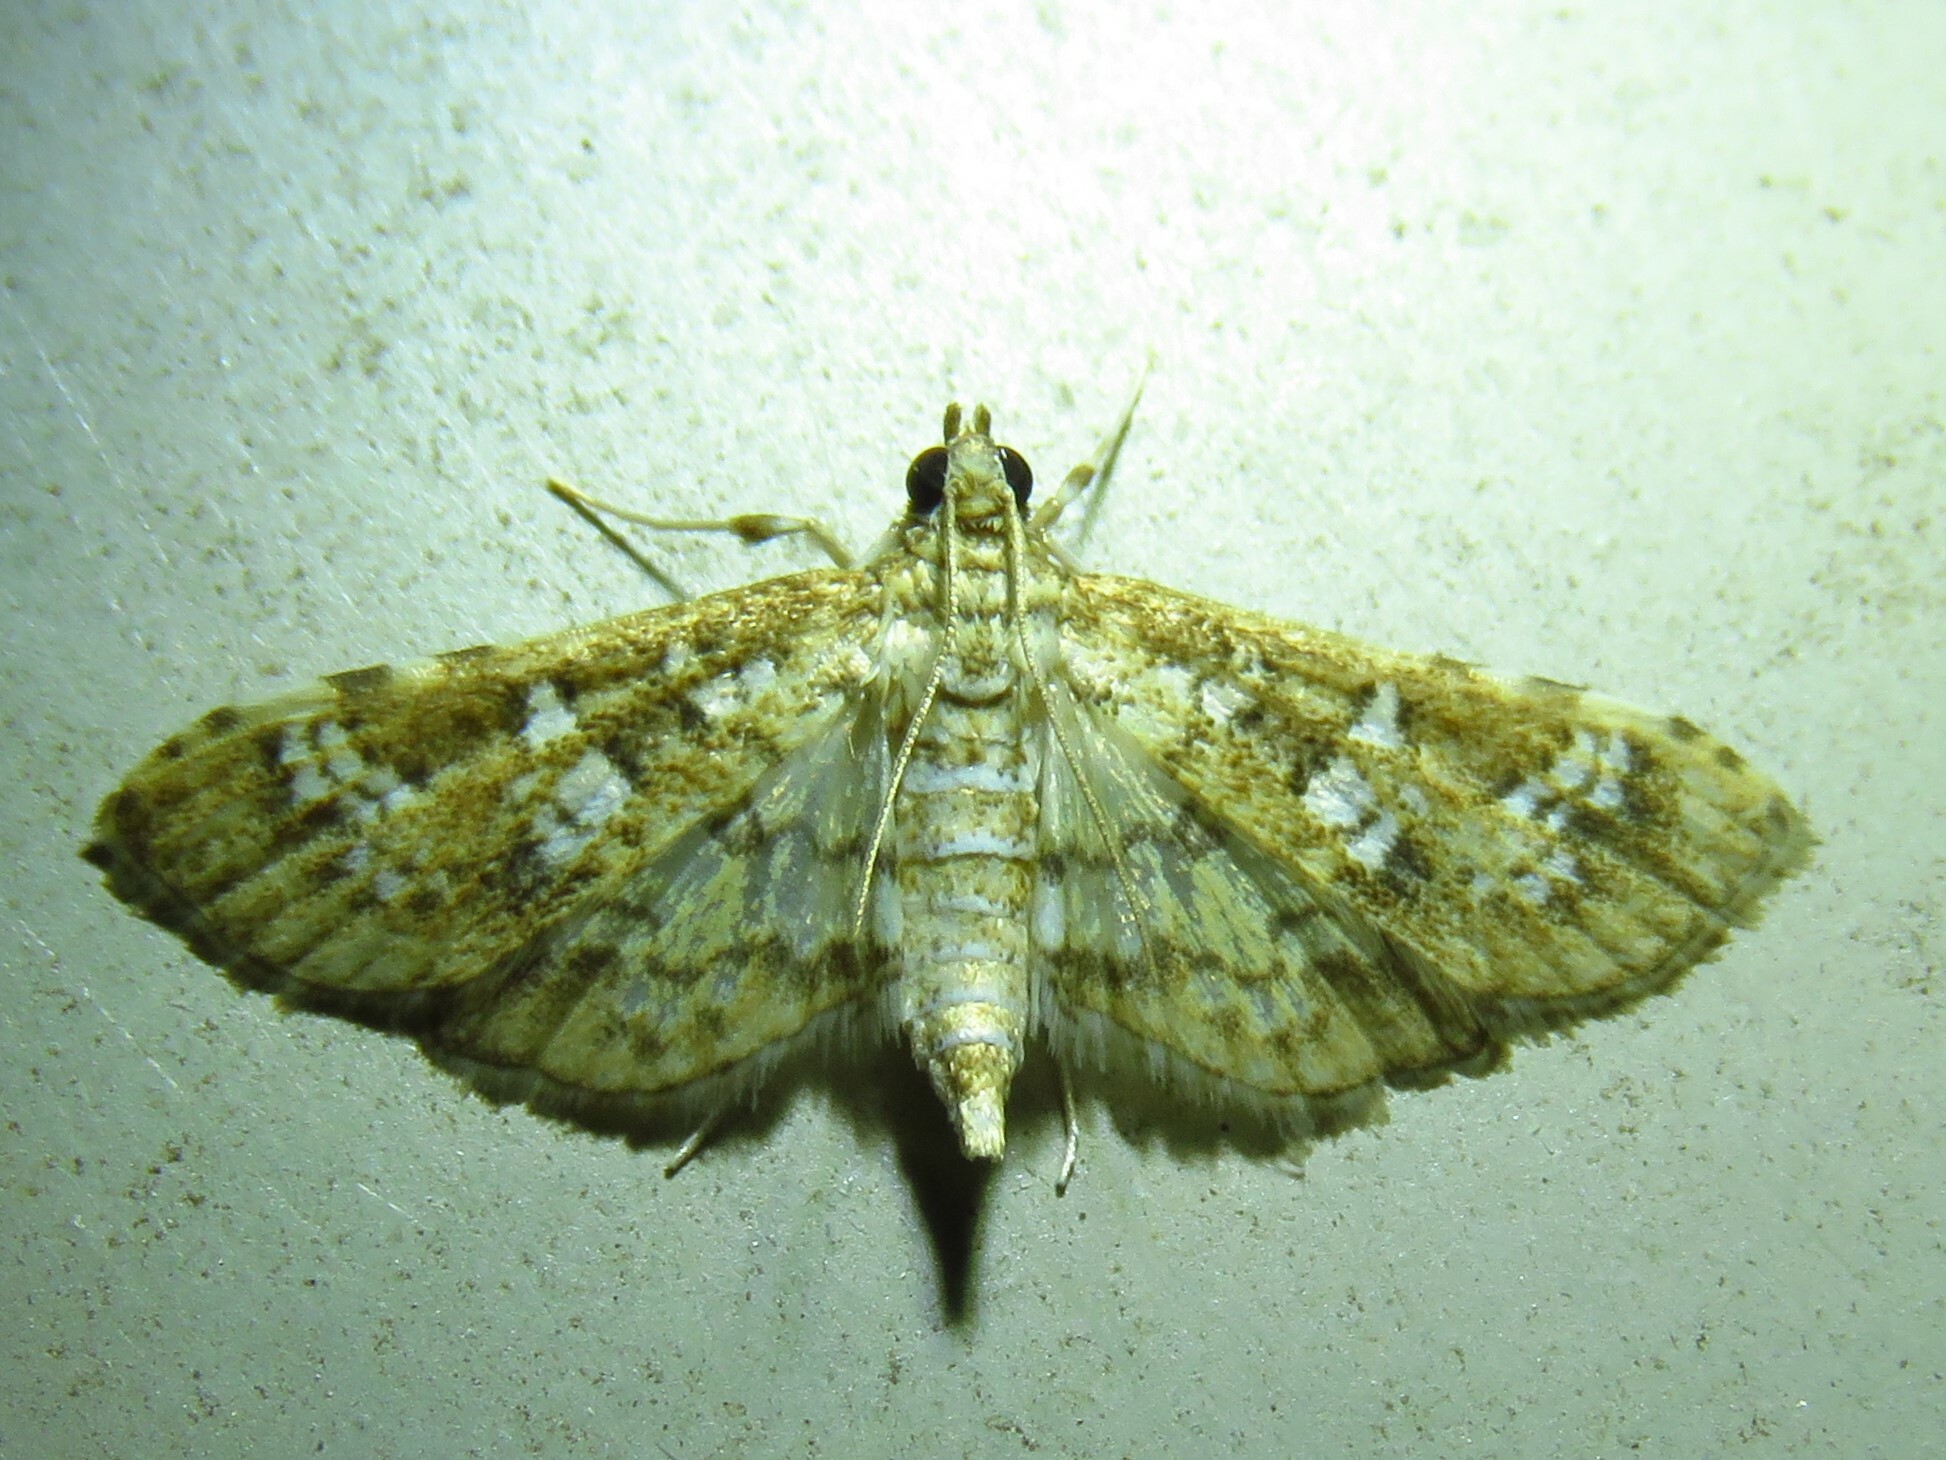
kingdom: Animalia
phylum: Arthropoda
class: Insecta
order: Lepidoptera
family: Crambidae
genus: Samea
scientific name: Samea multiplicalis
